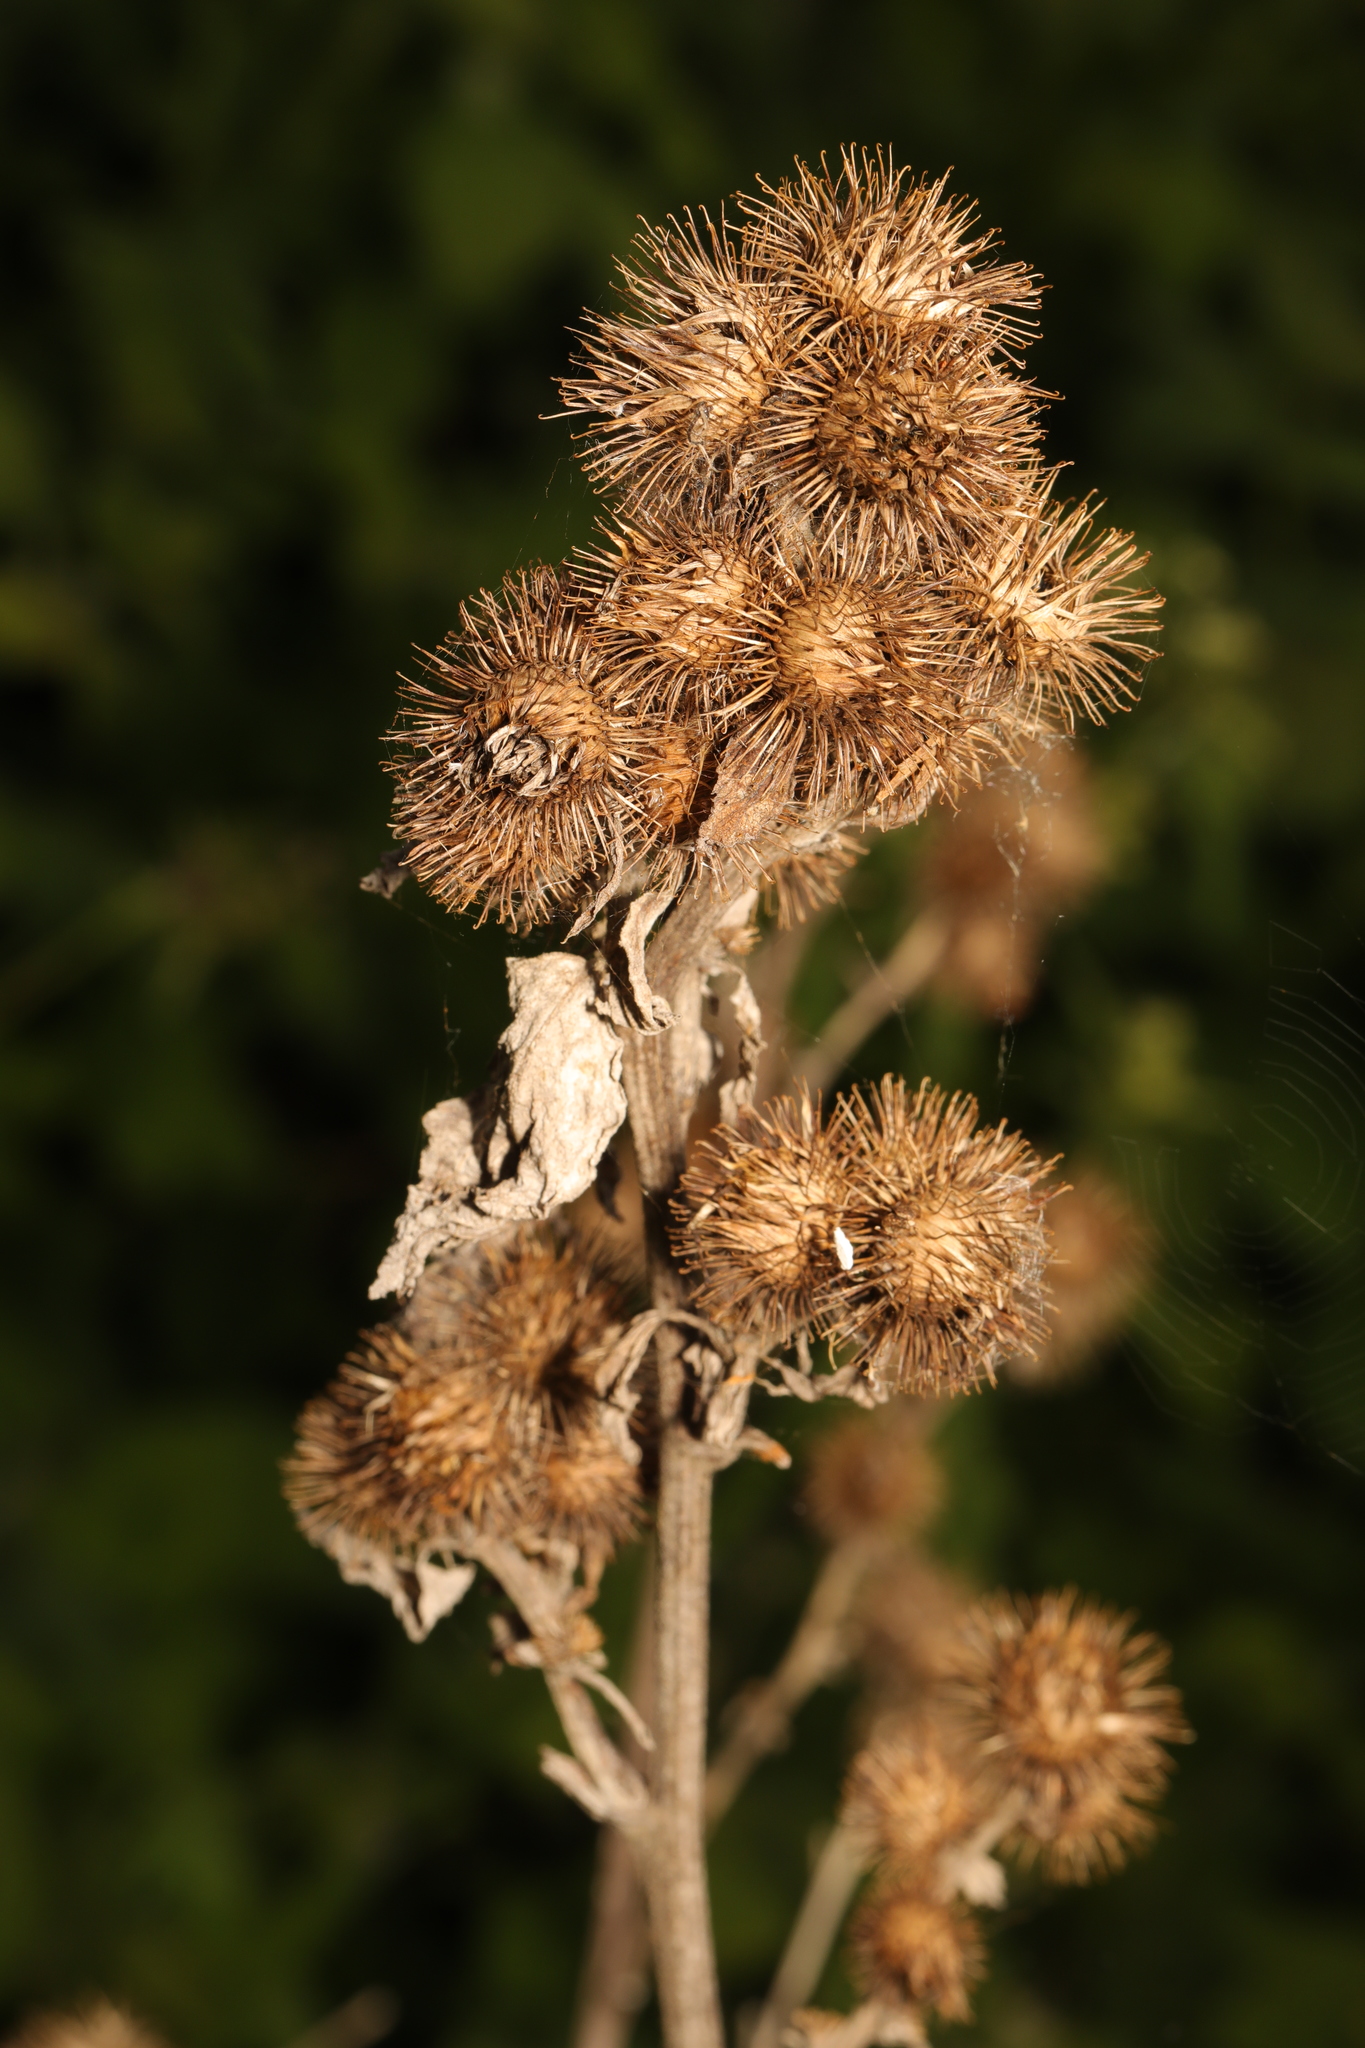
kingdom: Plantae
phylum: Tracheophyta
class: Magnoliopsida
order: Asterales
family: Asteraceae
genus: Arctium
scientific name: Arctium minus
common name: Lesser burdock
